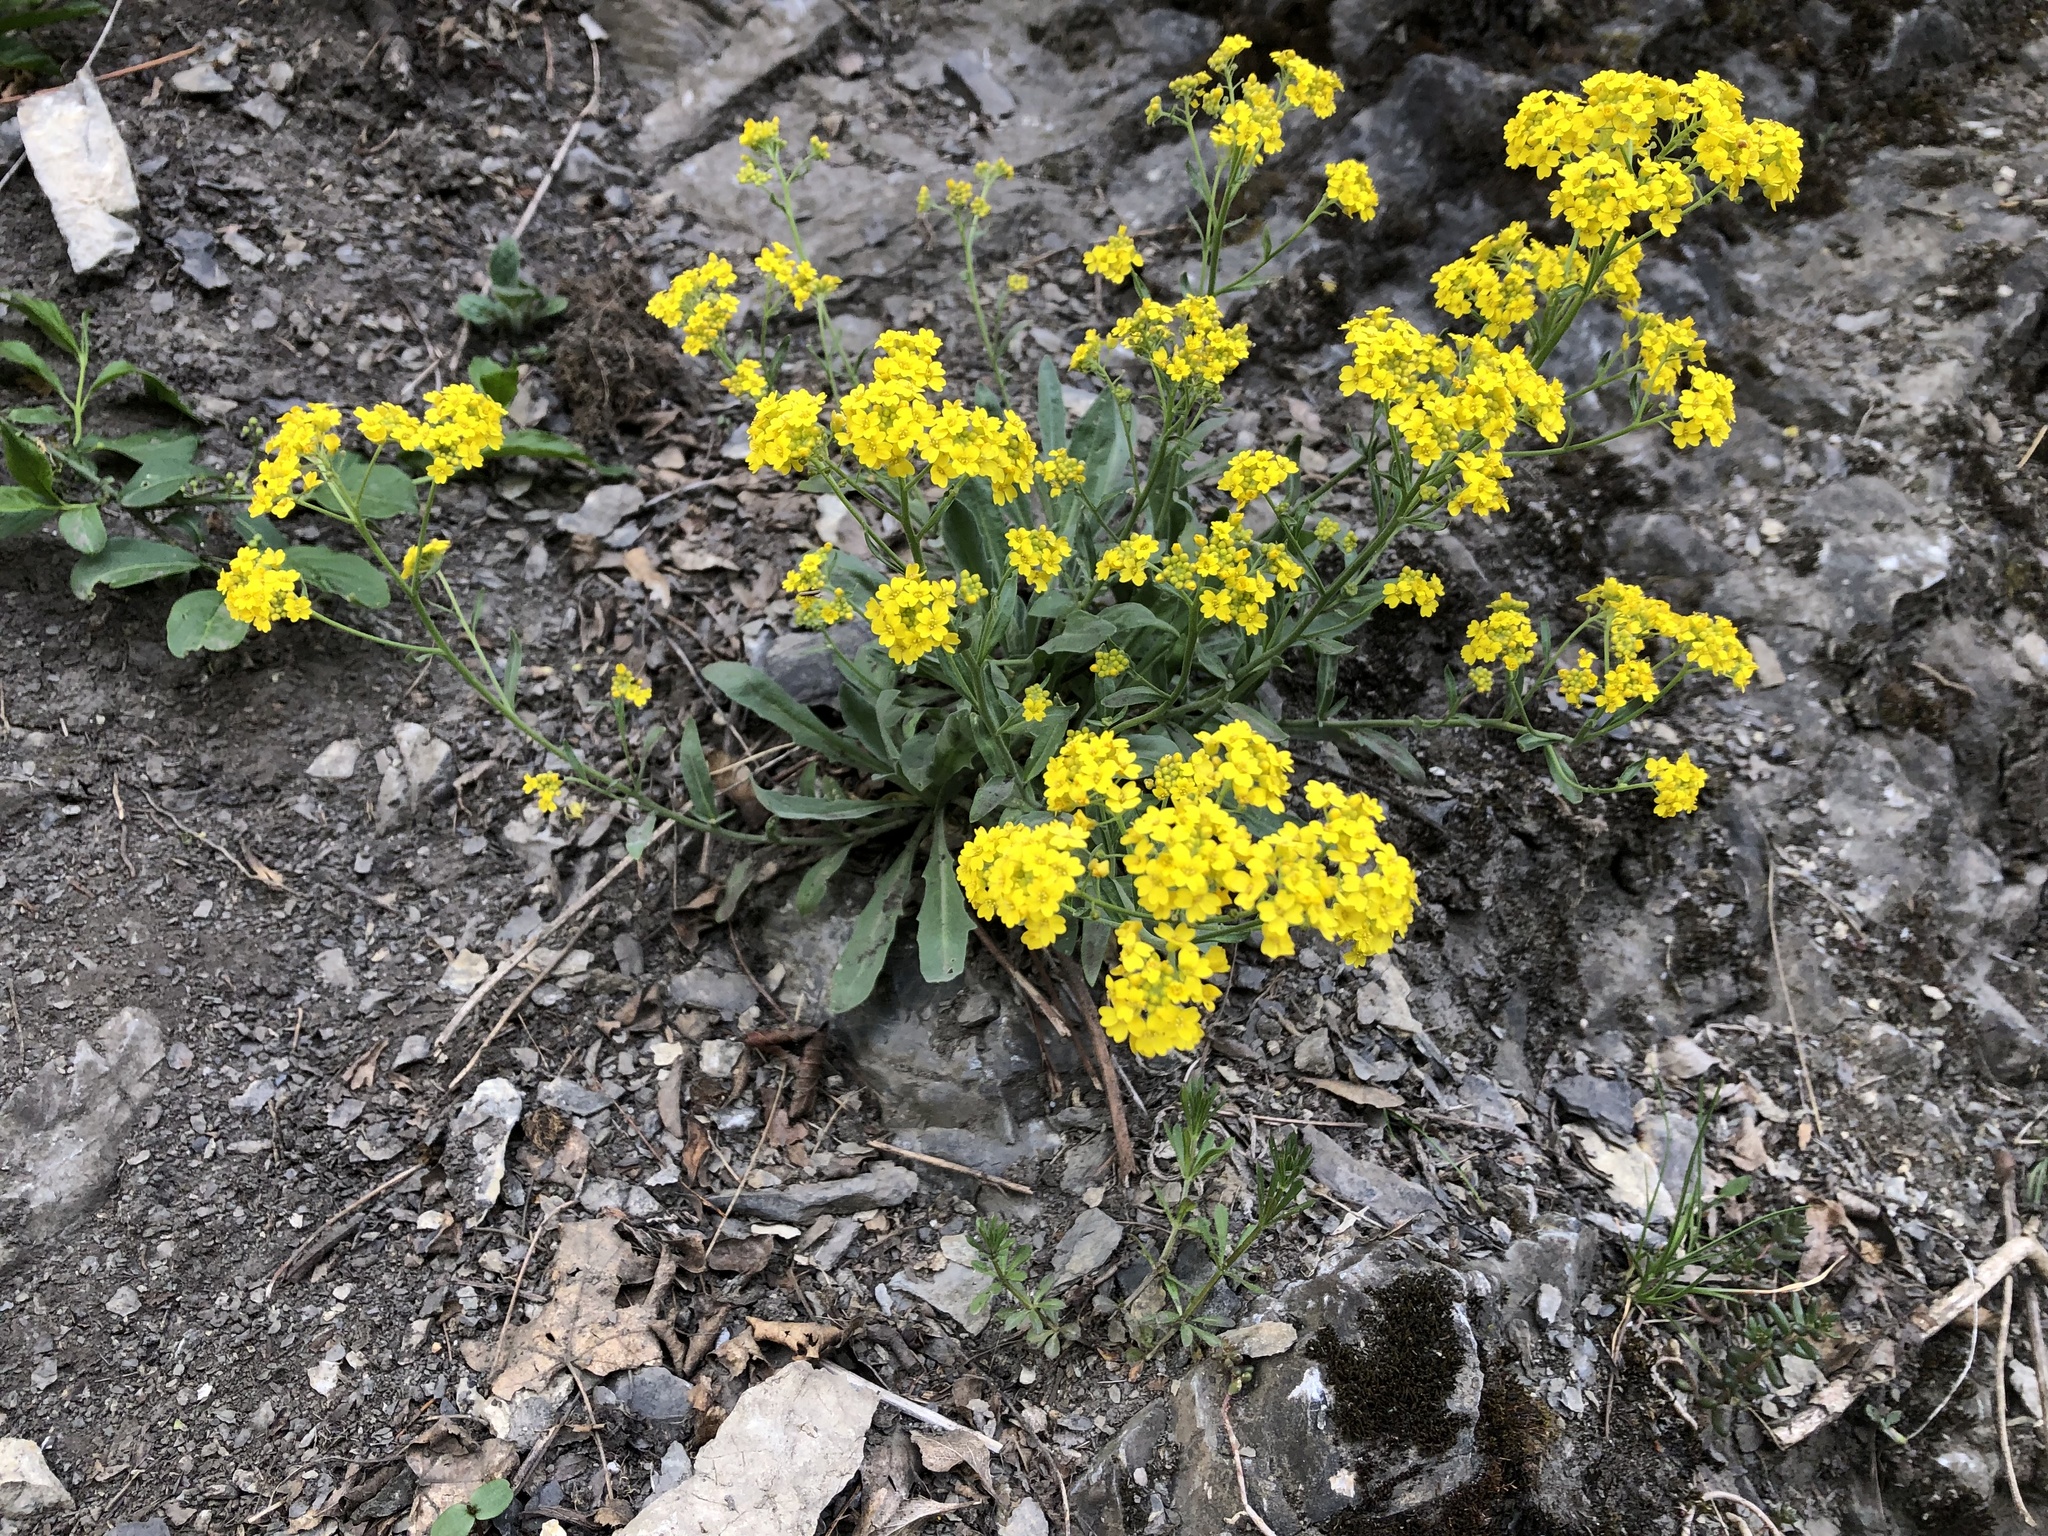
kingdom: Plantae
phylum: Tracheophyta
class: Magnoliopsida
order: Brassicales
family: Brassicaceae
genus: Aurinia
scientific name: Aurinia saxatilis
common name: Golden-tuft alyssum
